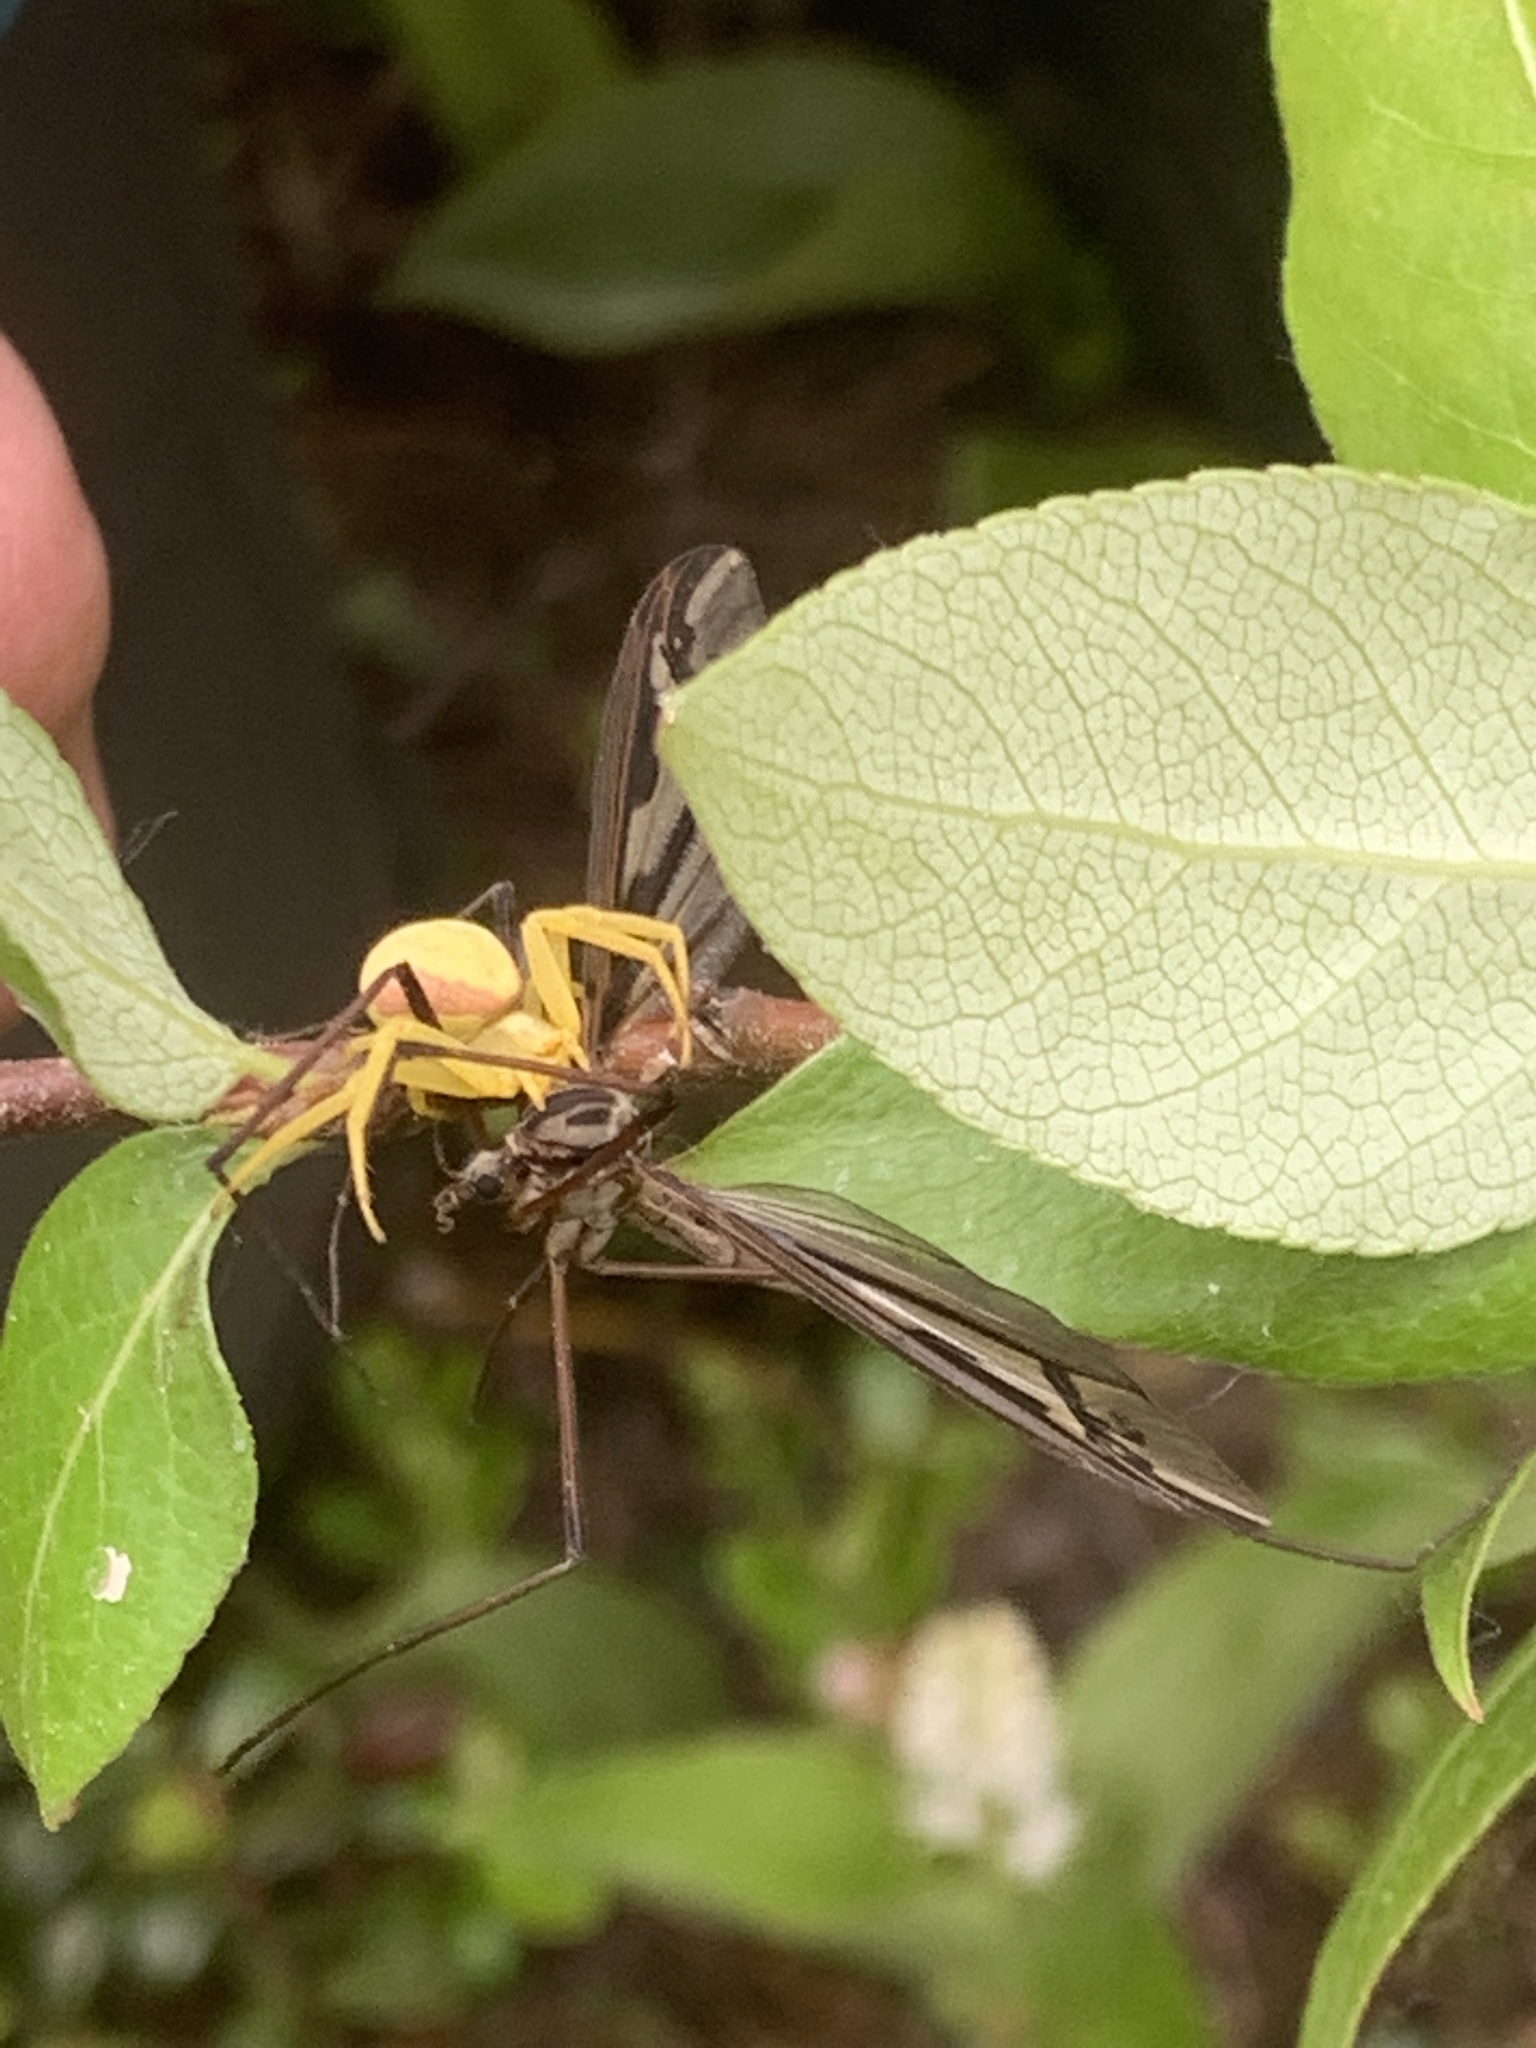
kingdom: Animalia
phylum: Arthropoda
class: Arachnida
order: Araneae
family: Thomisidae
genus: Misumena
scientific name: Misumena vatia
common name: Goldenrod crab spider
